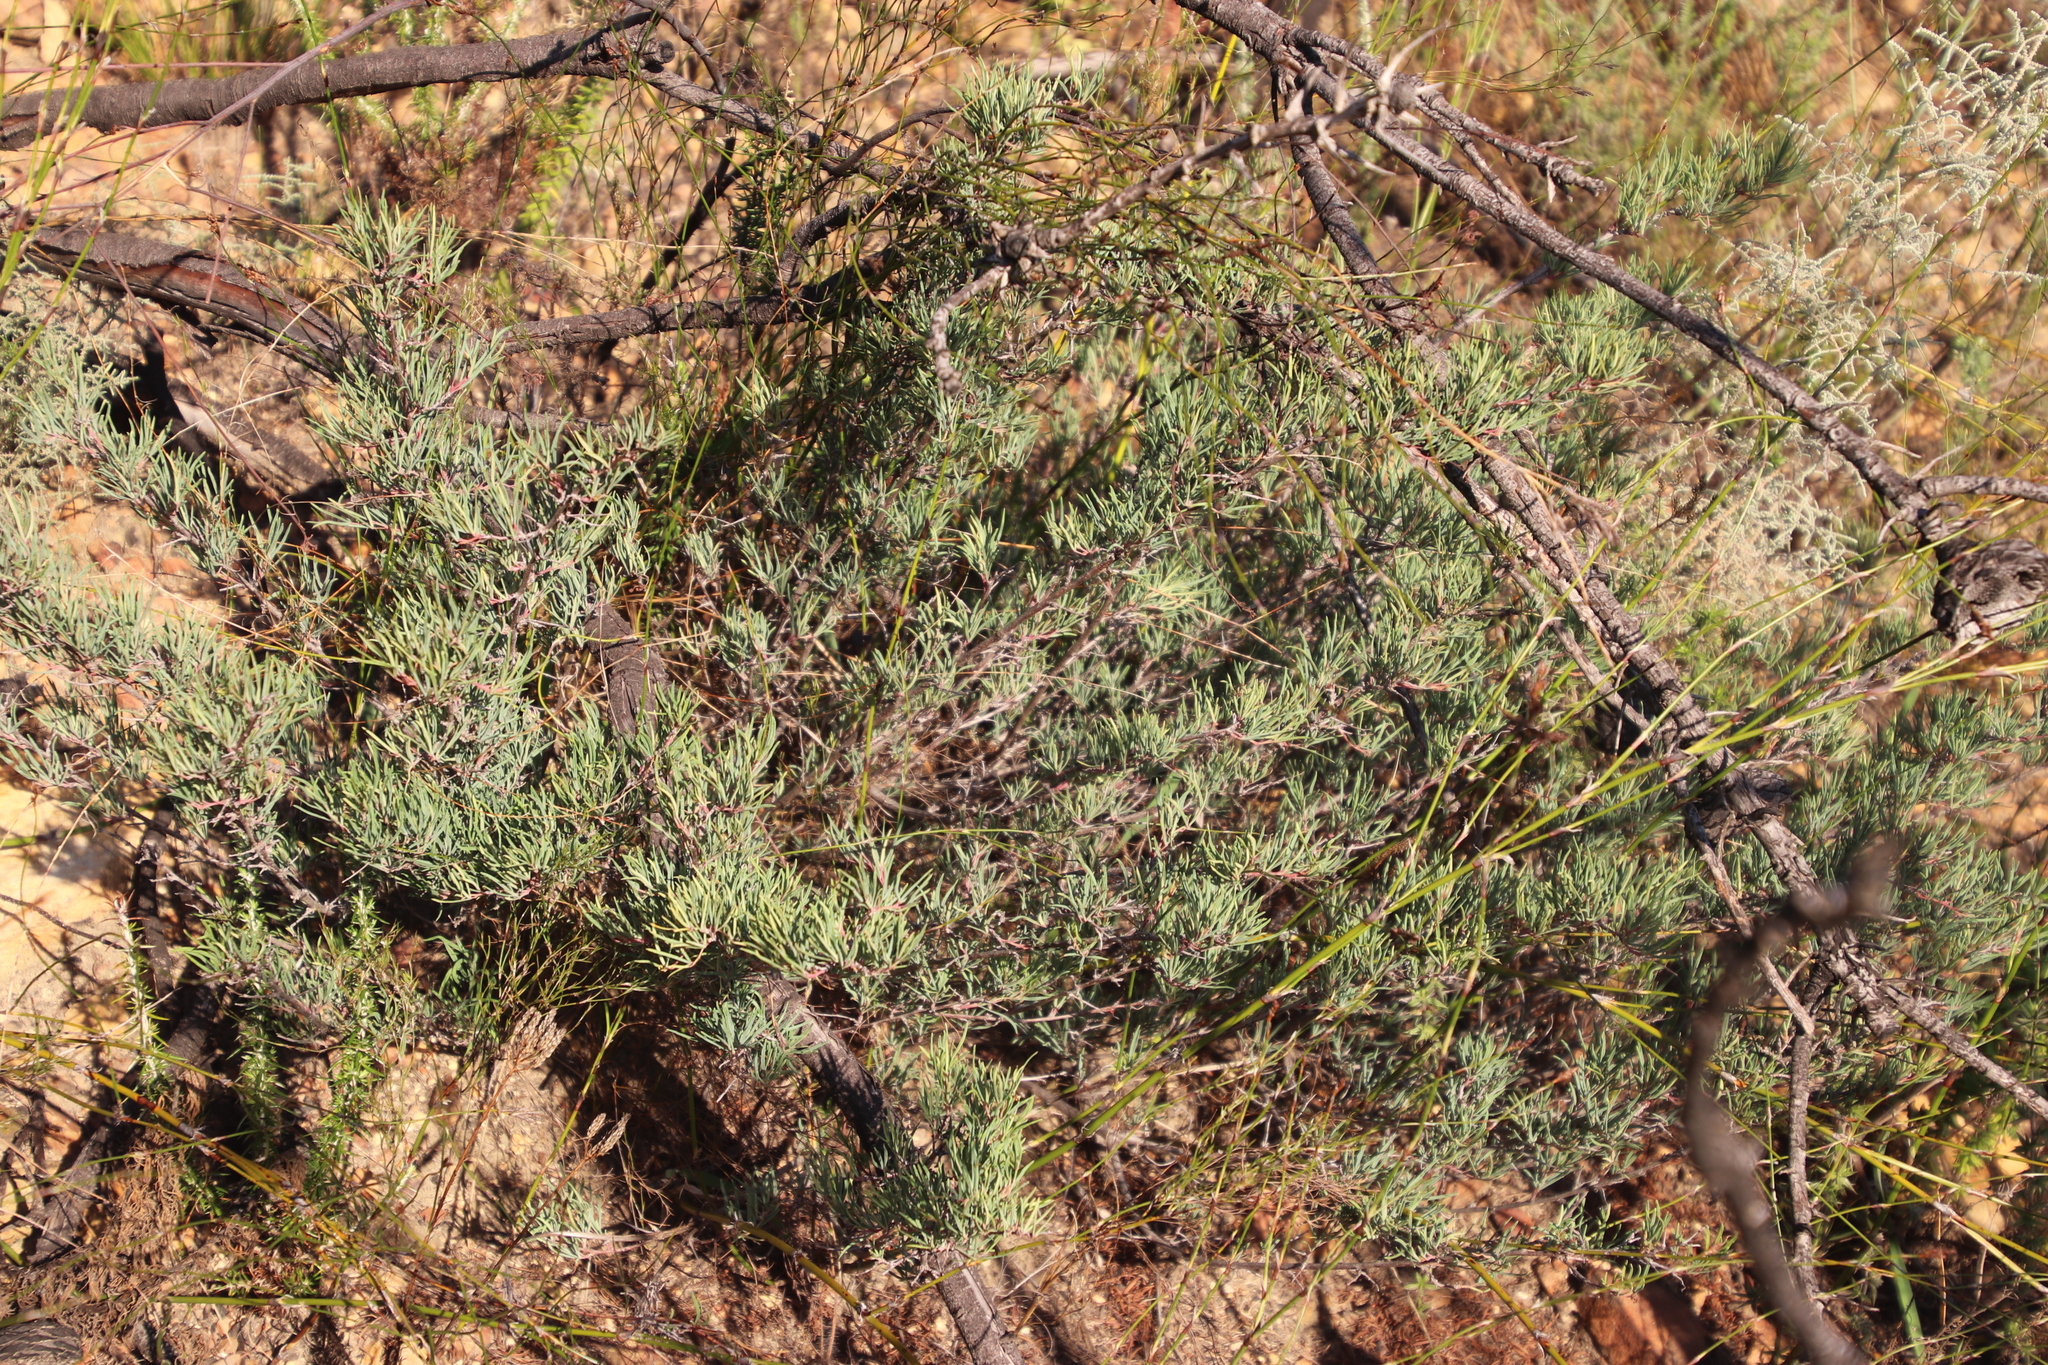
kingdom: Plantae
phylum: Tracheophyta
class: Magnoliopsida
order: Sapindales
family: Anacardiaceae
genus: Searsia
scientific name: Searsia rosmarinifolia
